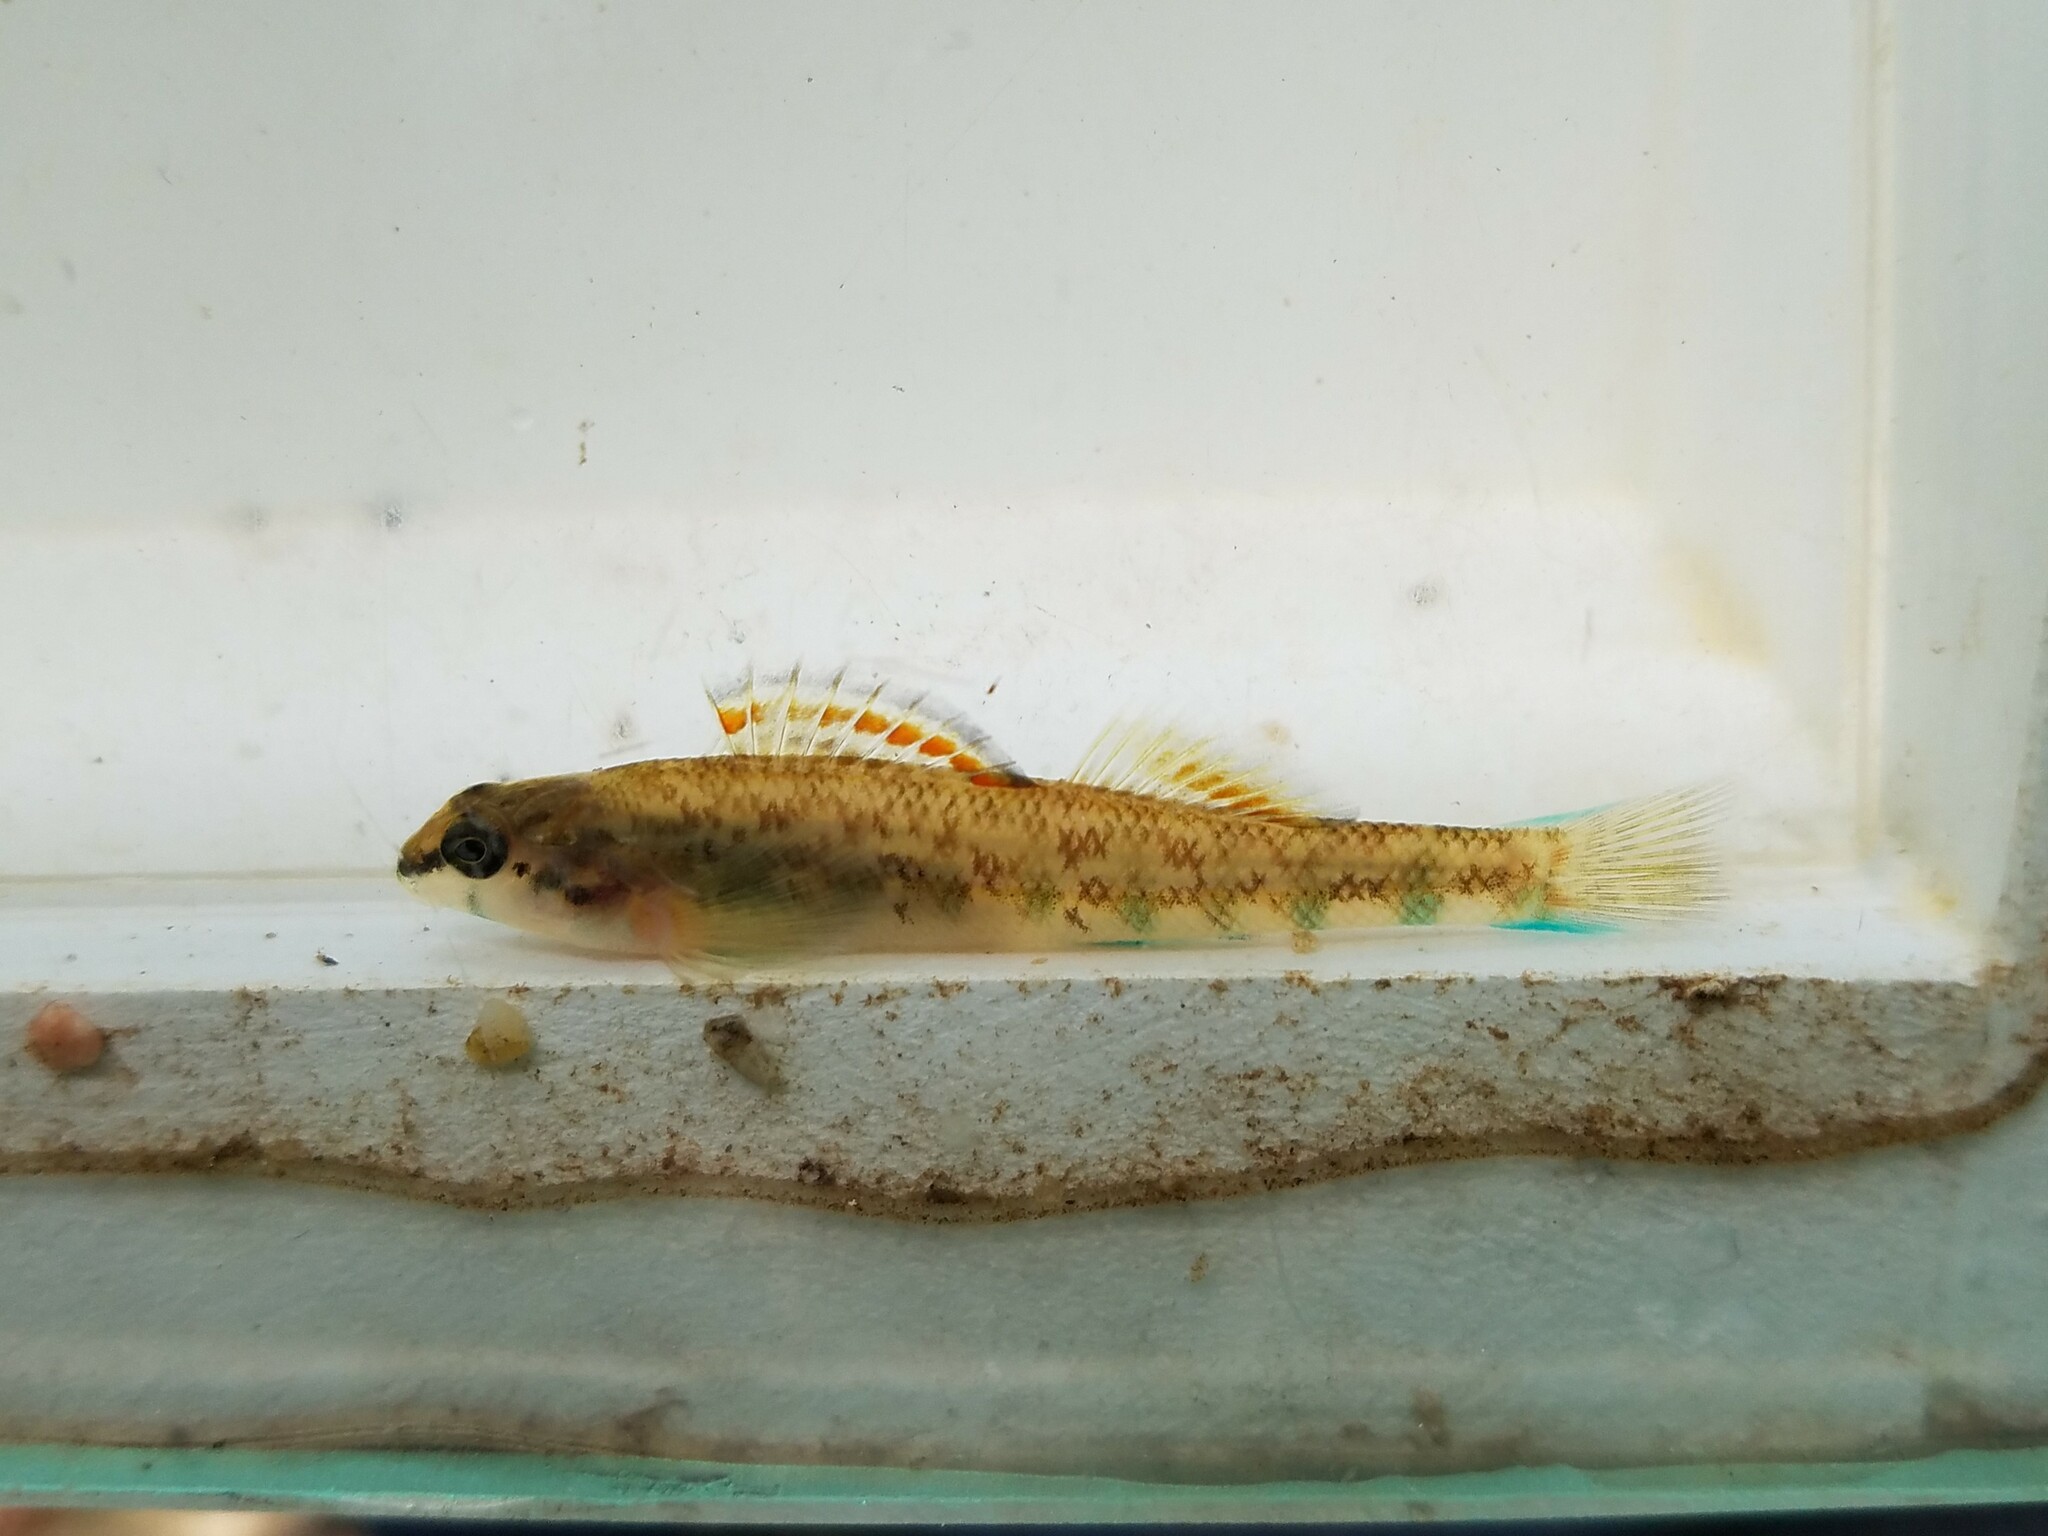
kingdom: Animalia
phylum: Chordata
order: Perciformes
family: Percidae
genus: Etheostoma
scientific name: Etheostoma coosae
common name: Coosa darter
